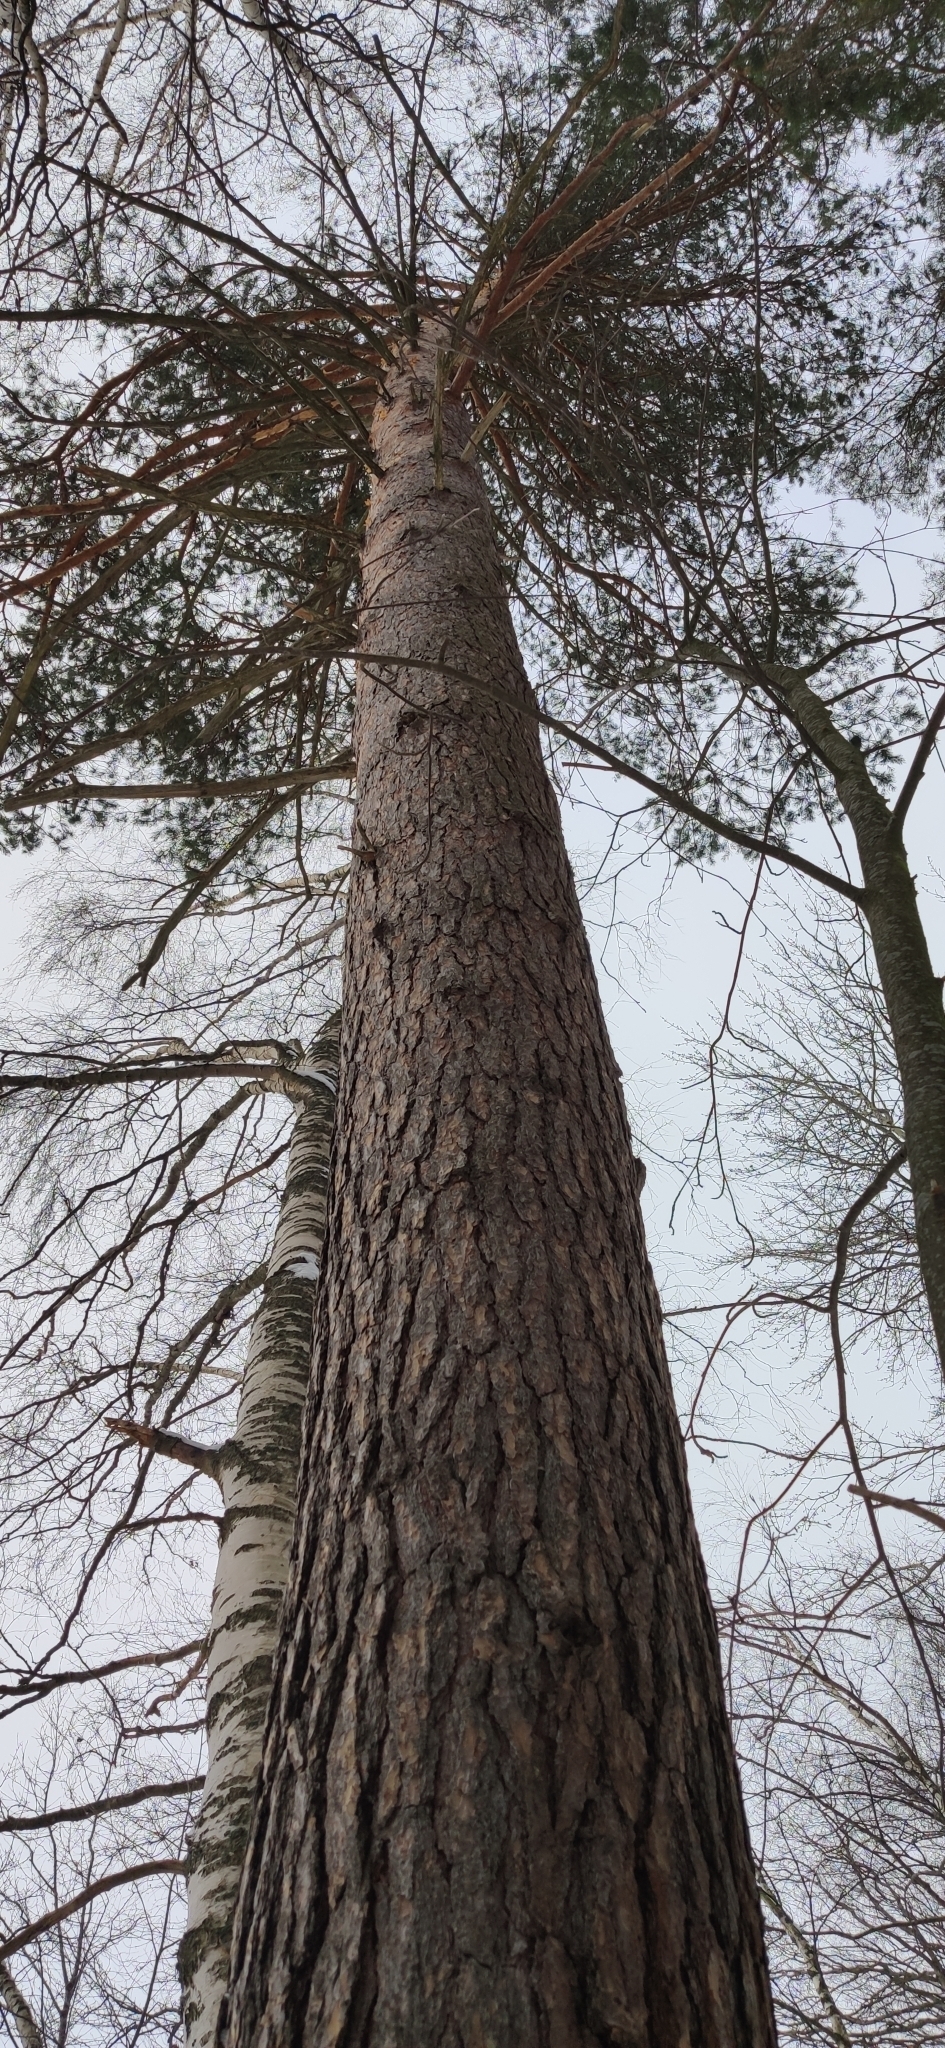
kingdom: Plantae
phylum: Tracheophyta
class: Pinopsida
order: Pinales
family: Pinaceae
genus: Pinus
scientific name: Pinus sylvestris
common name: Scots pine
